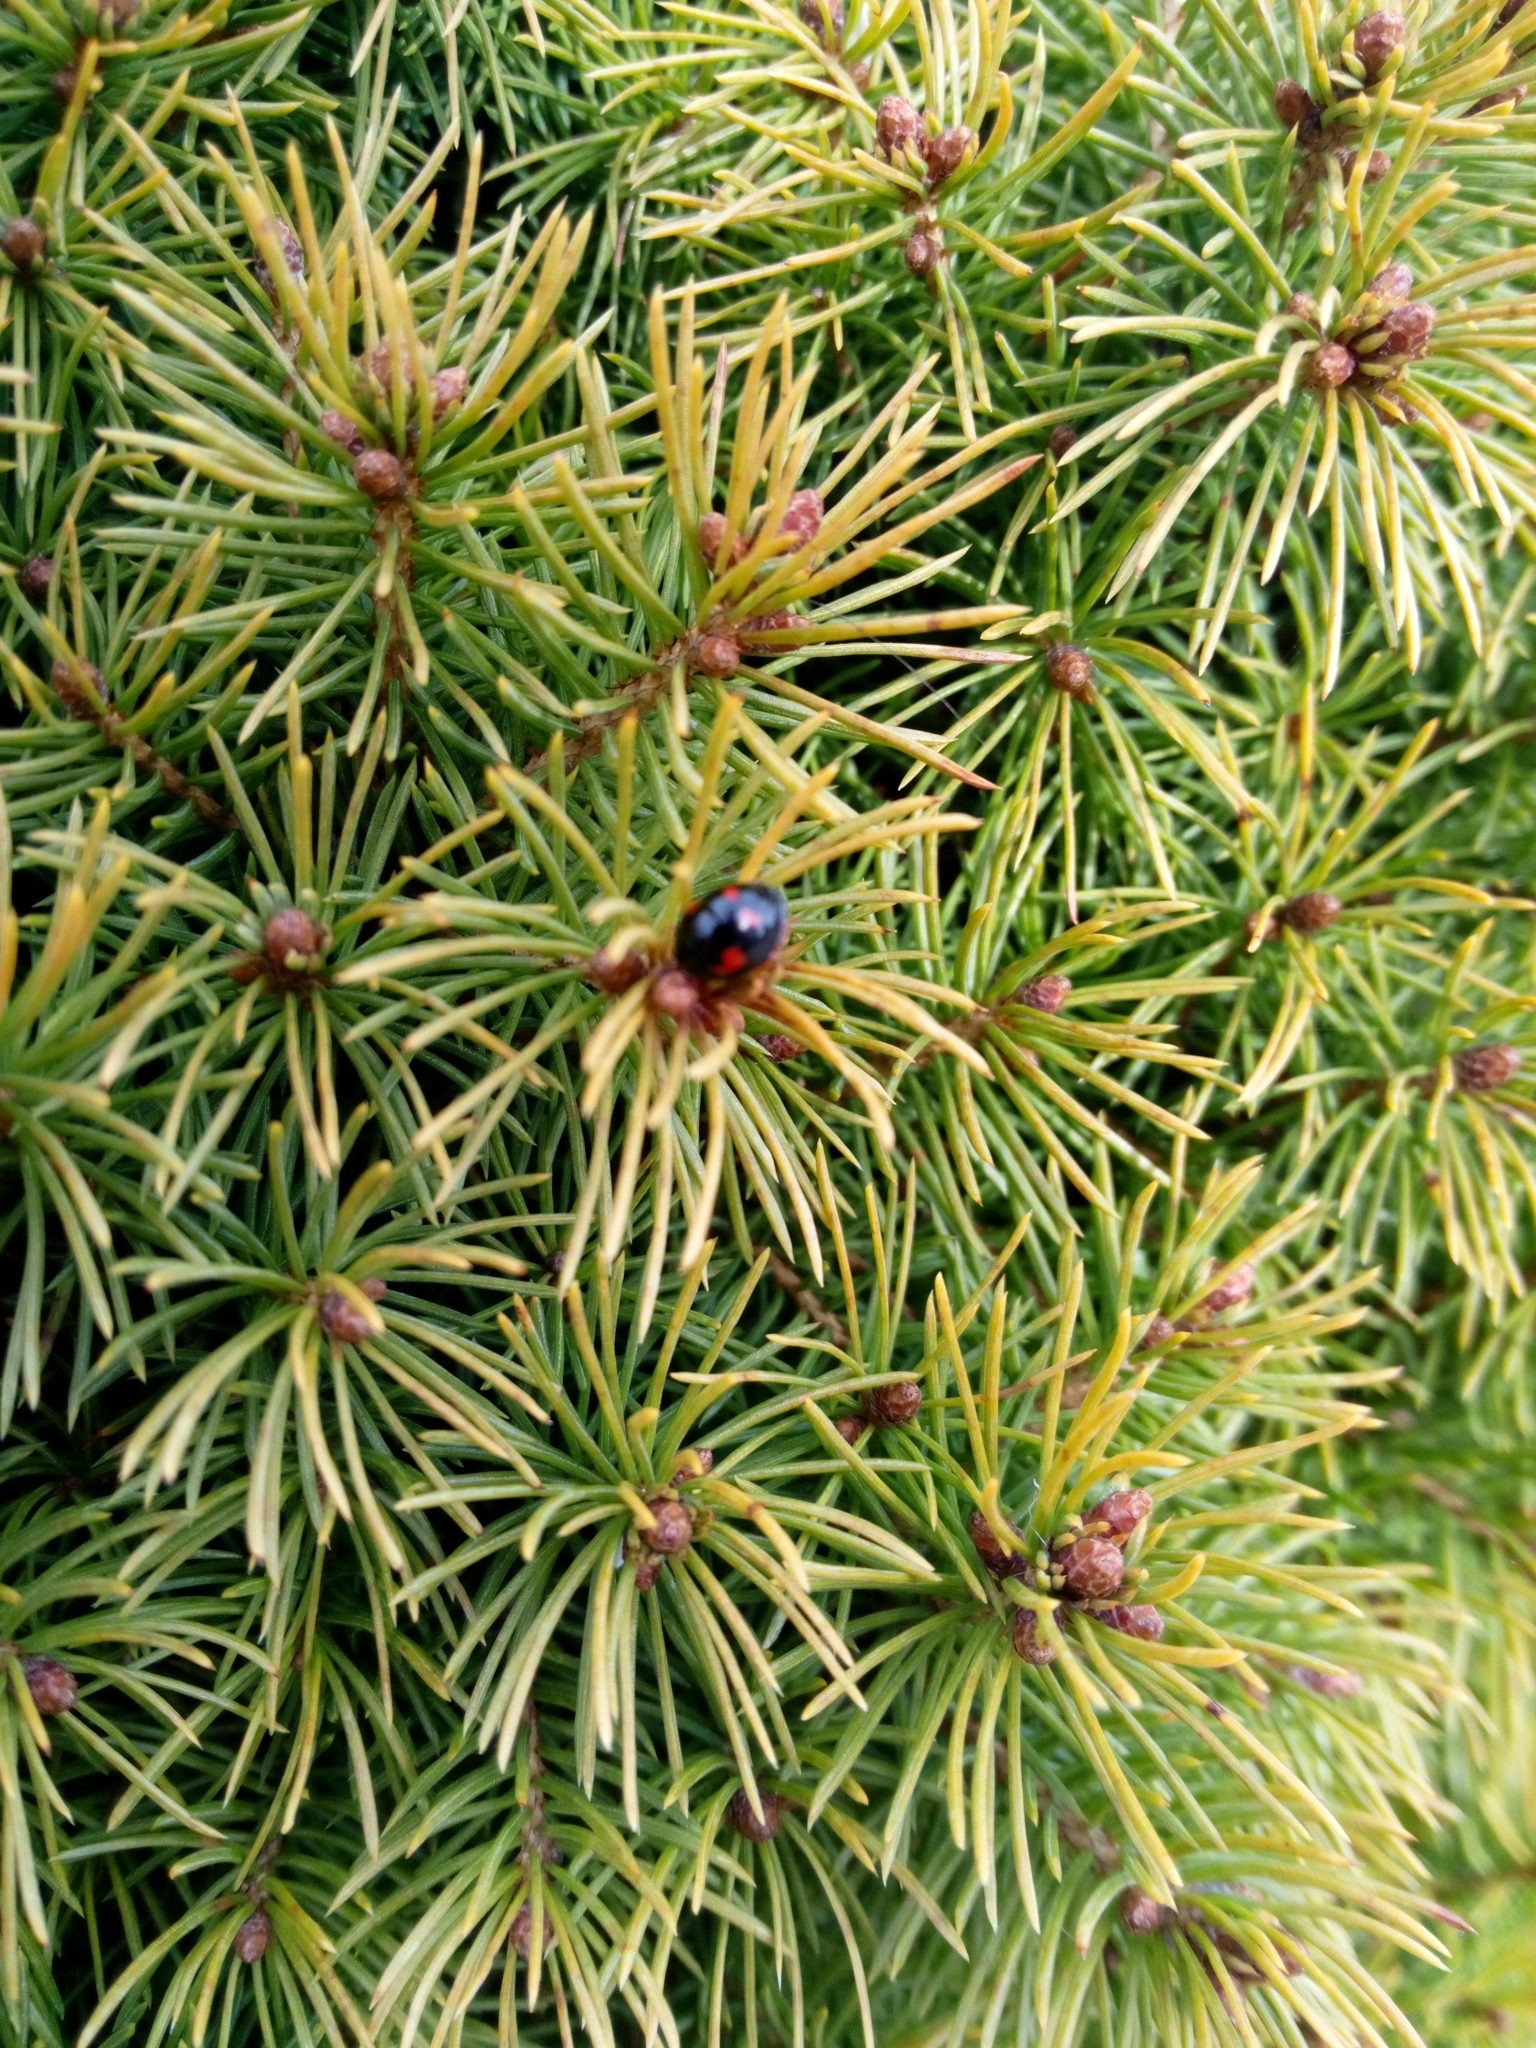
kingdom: Animalia
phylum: Arthropoda
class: Insecta
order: Coleoptera
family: Coccinellidae
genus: Brumus
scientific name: Brumus quadripustulatus
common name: Ladybird beetle
